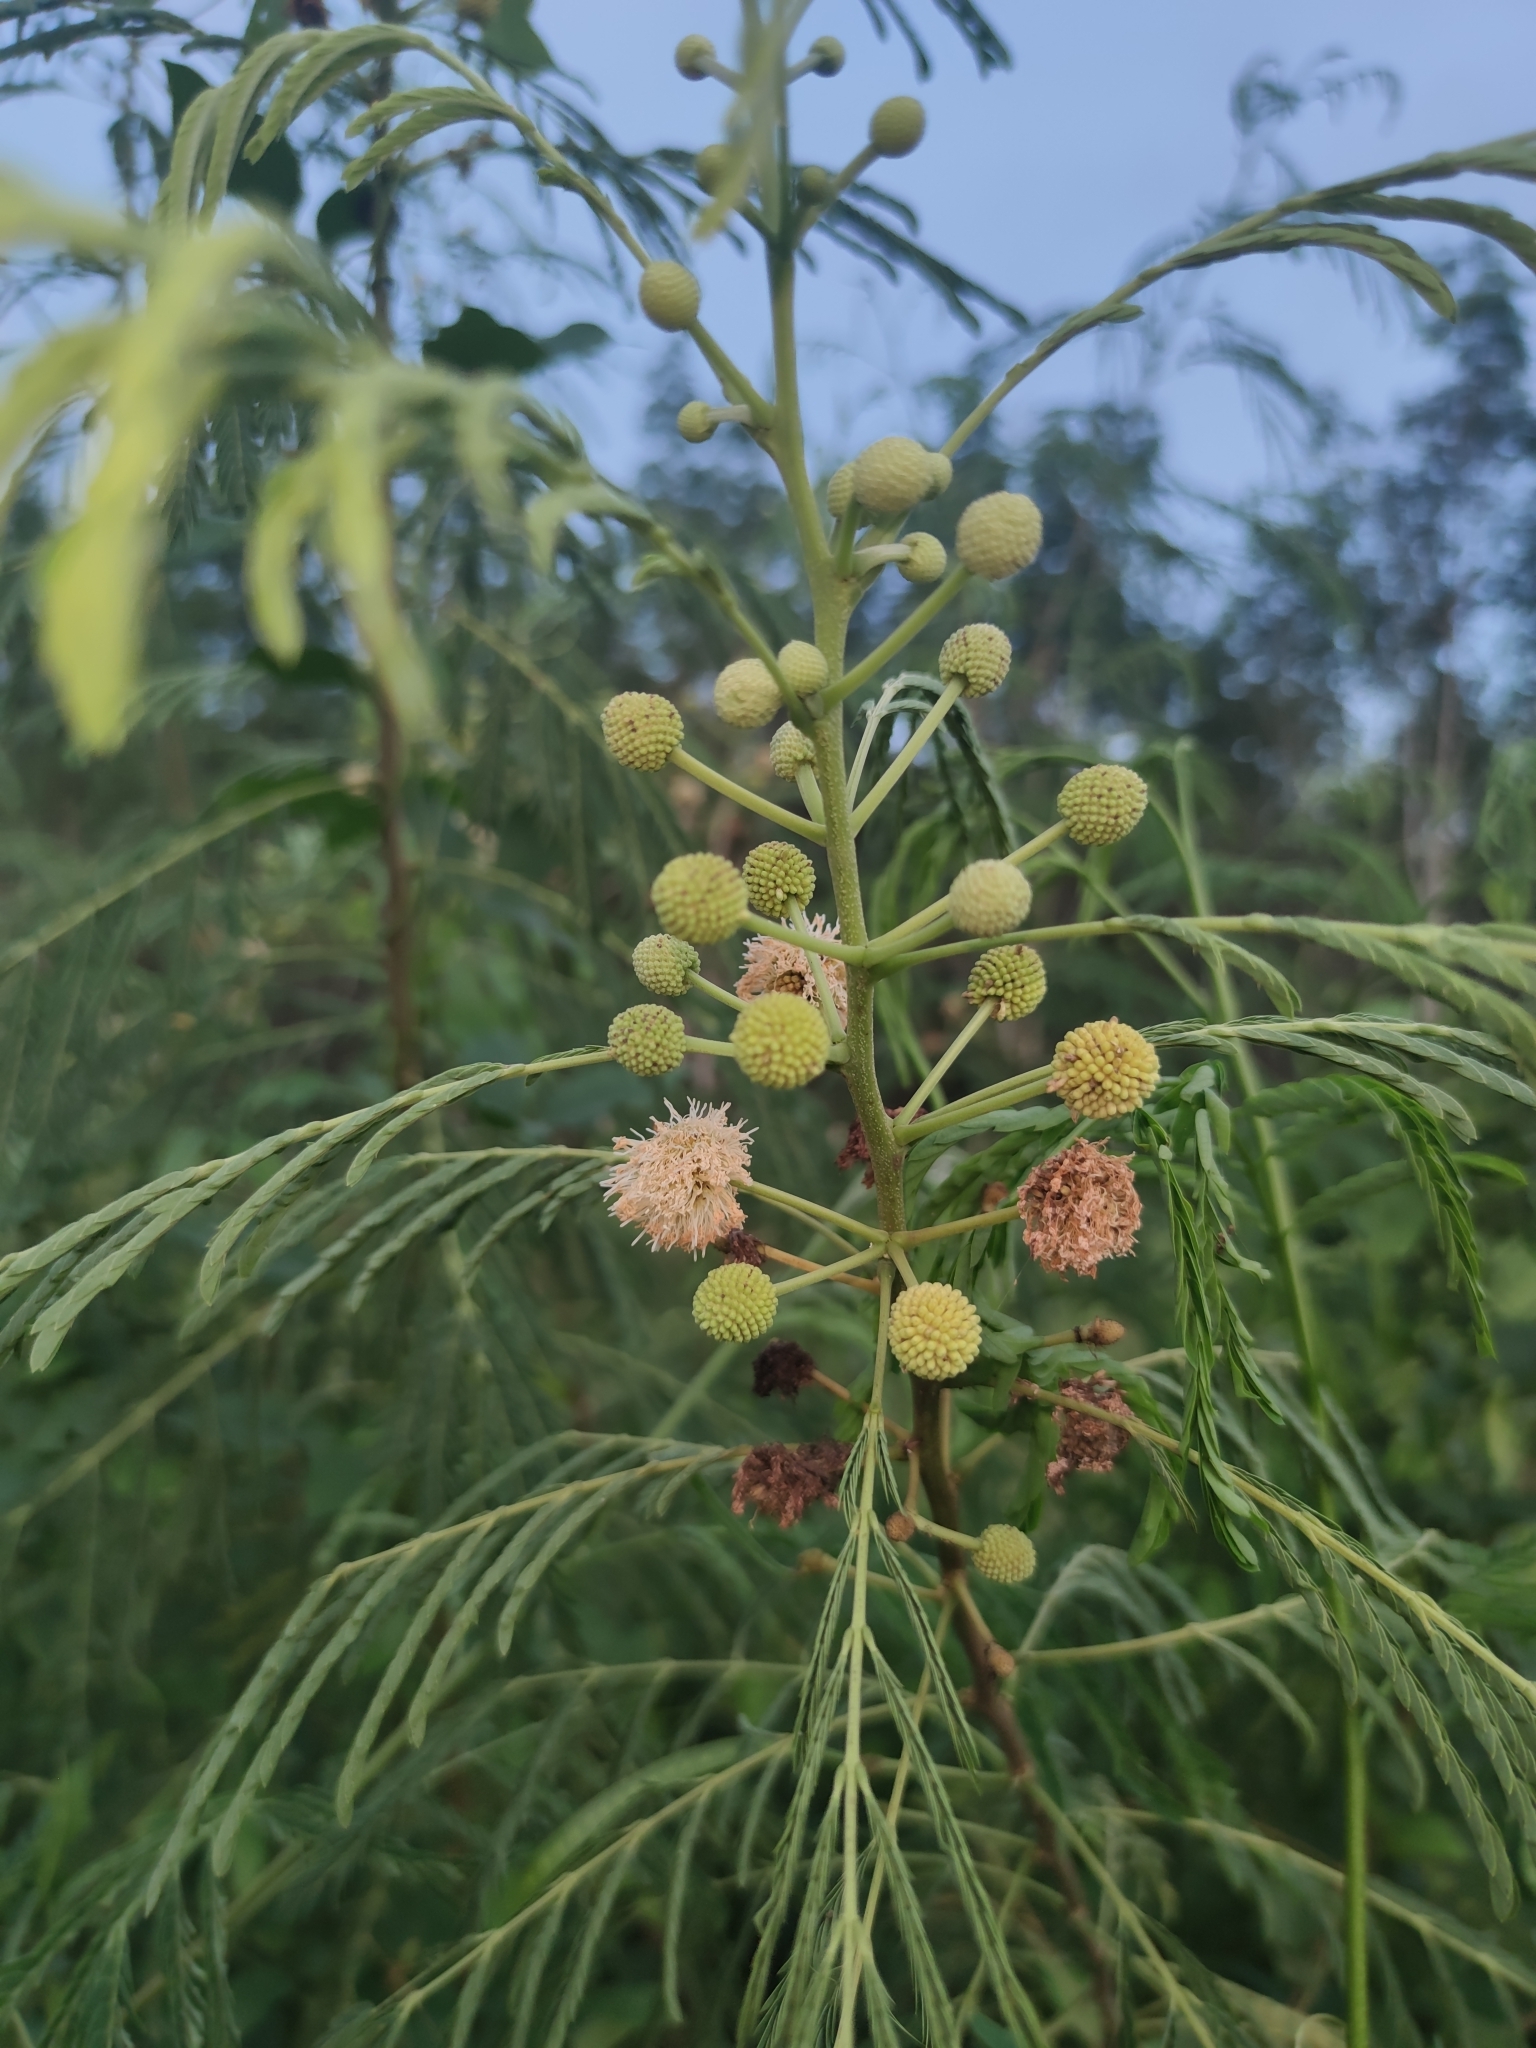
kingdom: Plantae
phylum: Tracheophyta
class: Magnoliopsida
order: Fabales
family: Fabaceae
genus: Leucaena
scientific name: Leucaena leucocephala
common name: White leadtree
